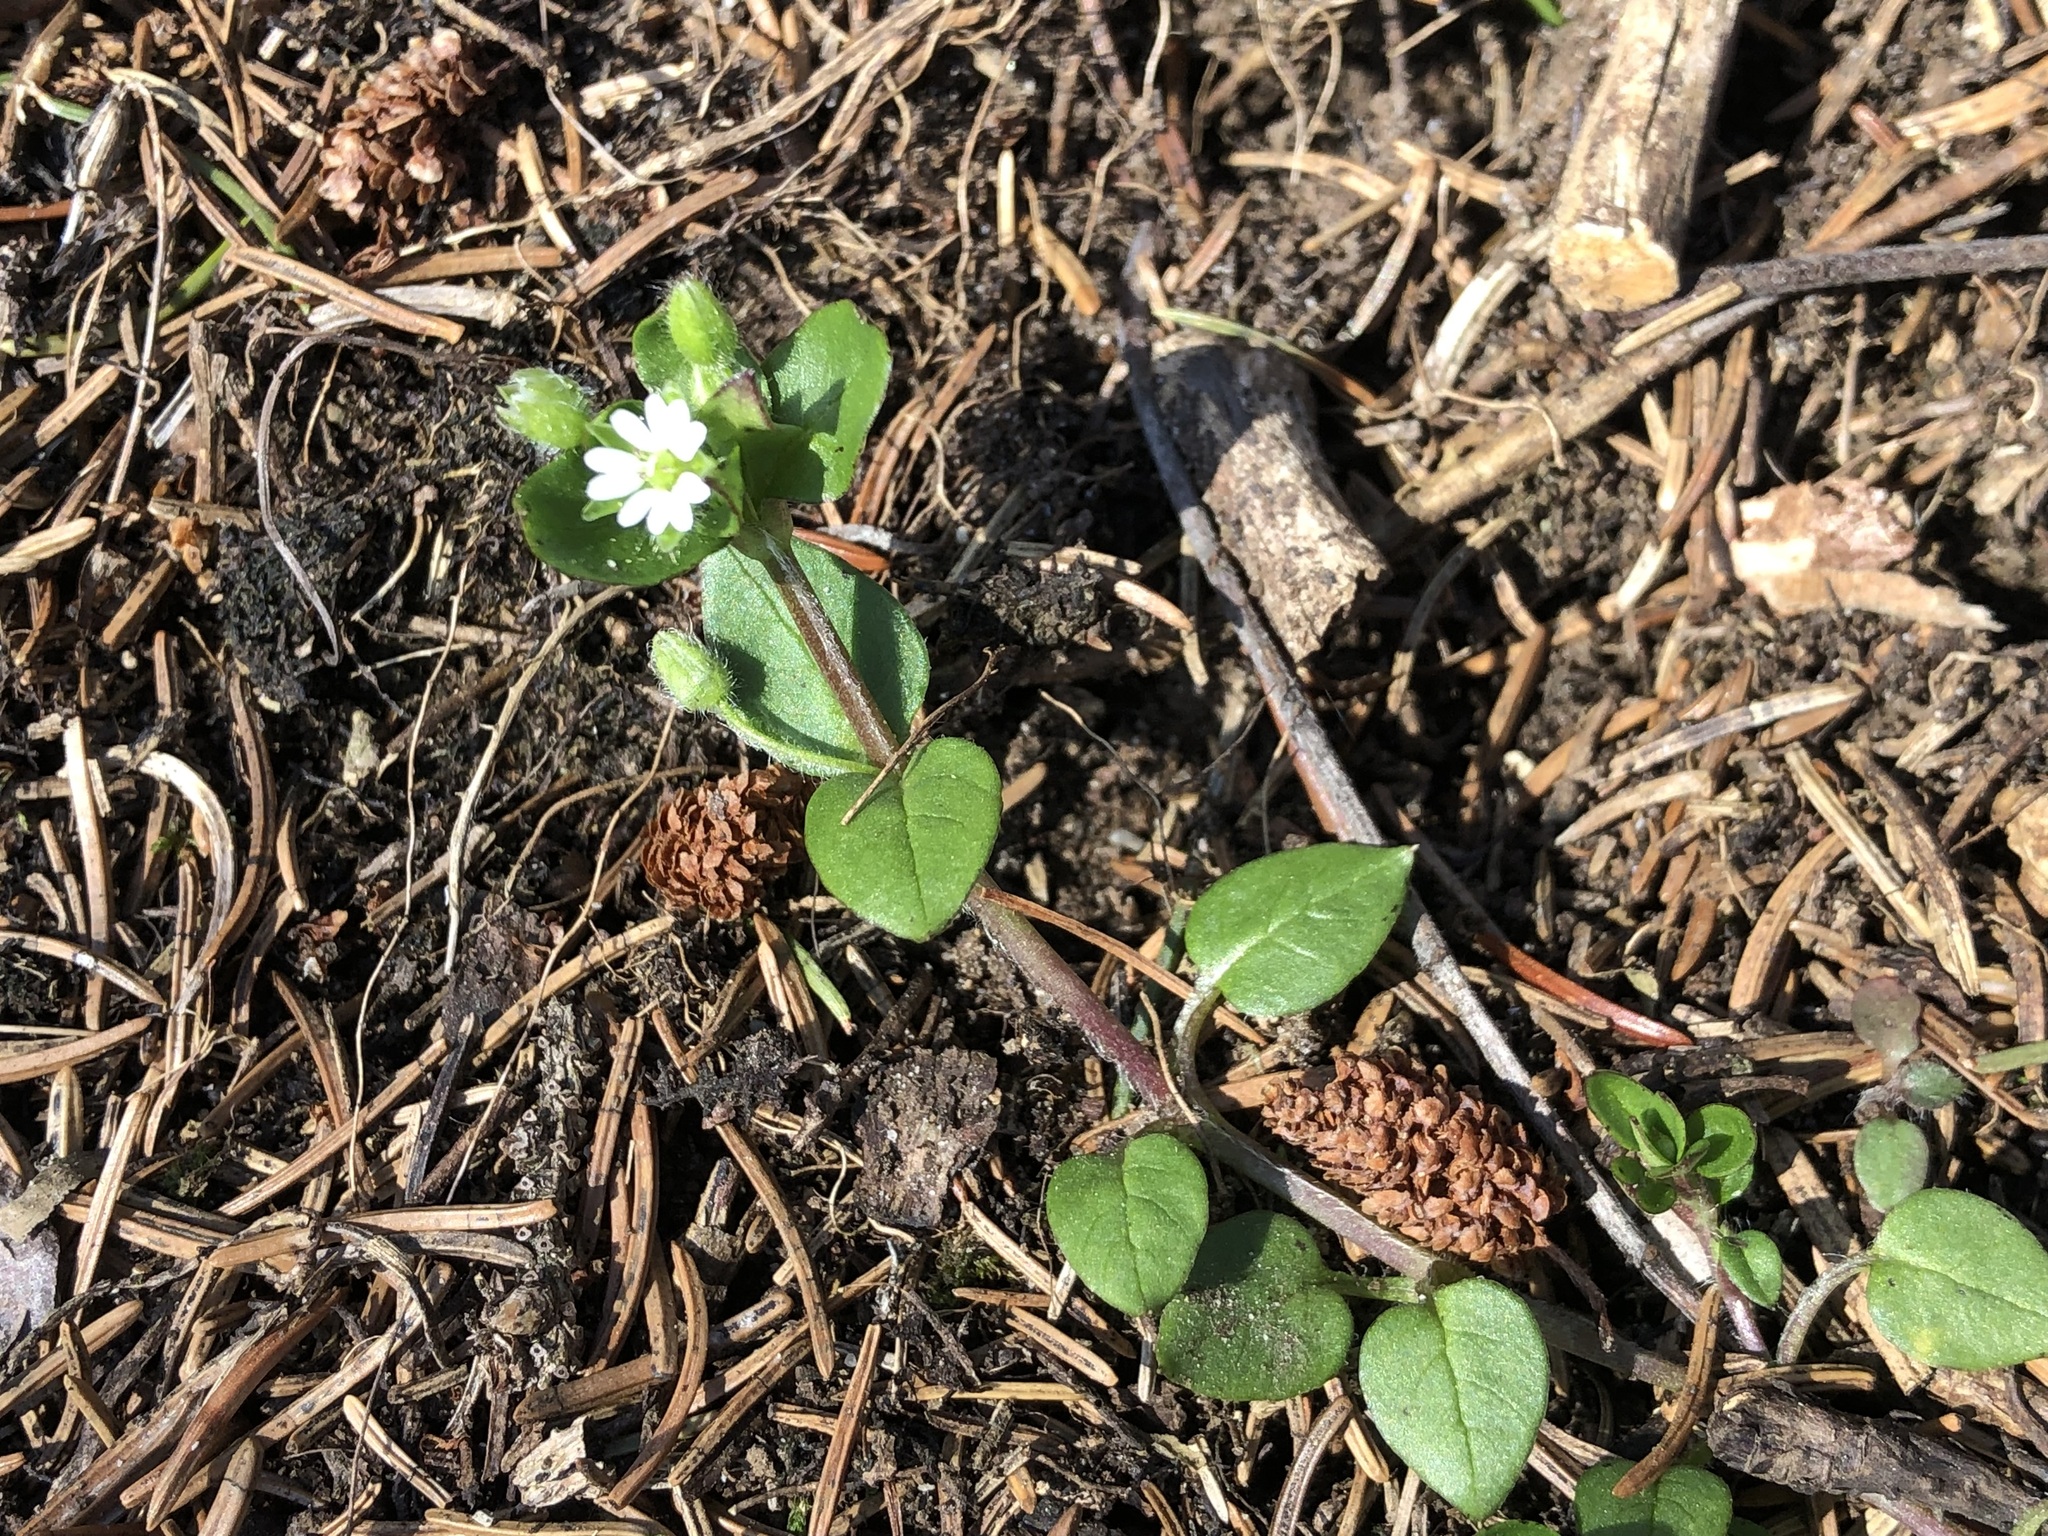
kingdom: Plantae
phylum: Tracheophyta
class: Magnoliopsida
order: Caryophyllales
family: Caryophyllaceae
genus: Stellaria
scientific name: Stellaria media
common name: Common chickweed
